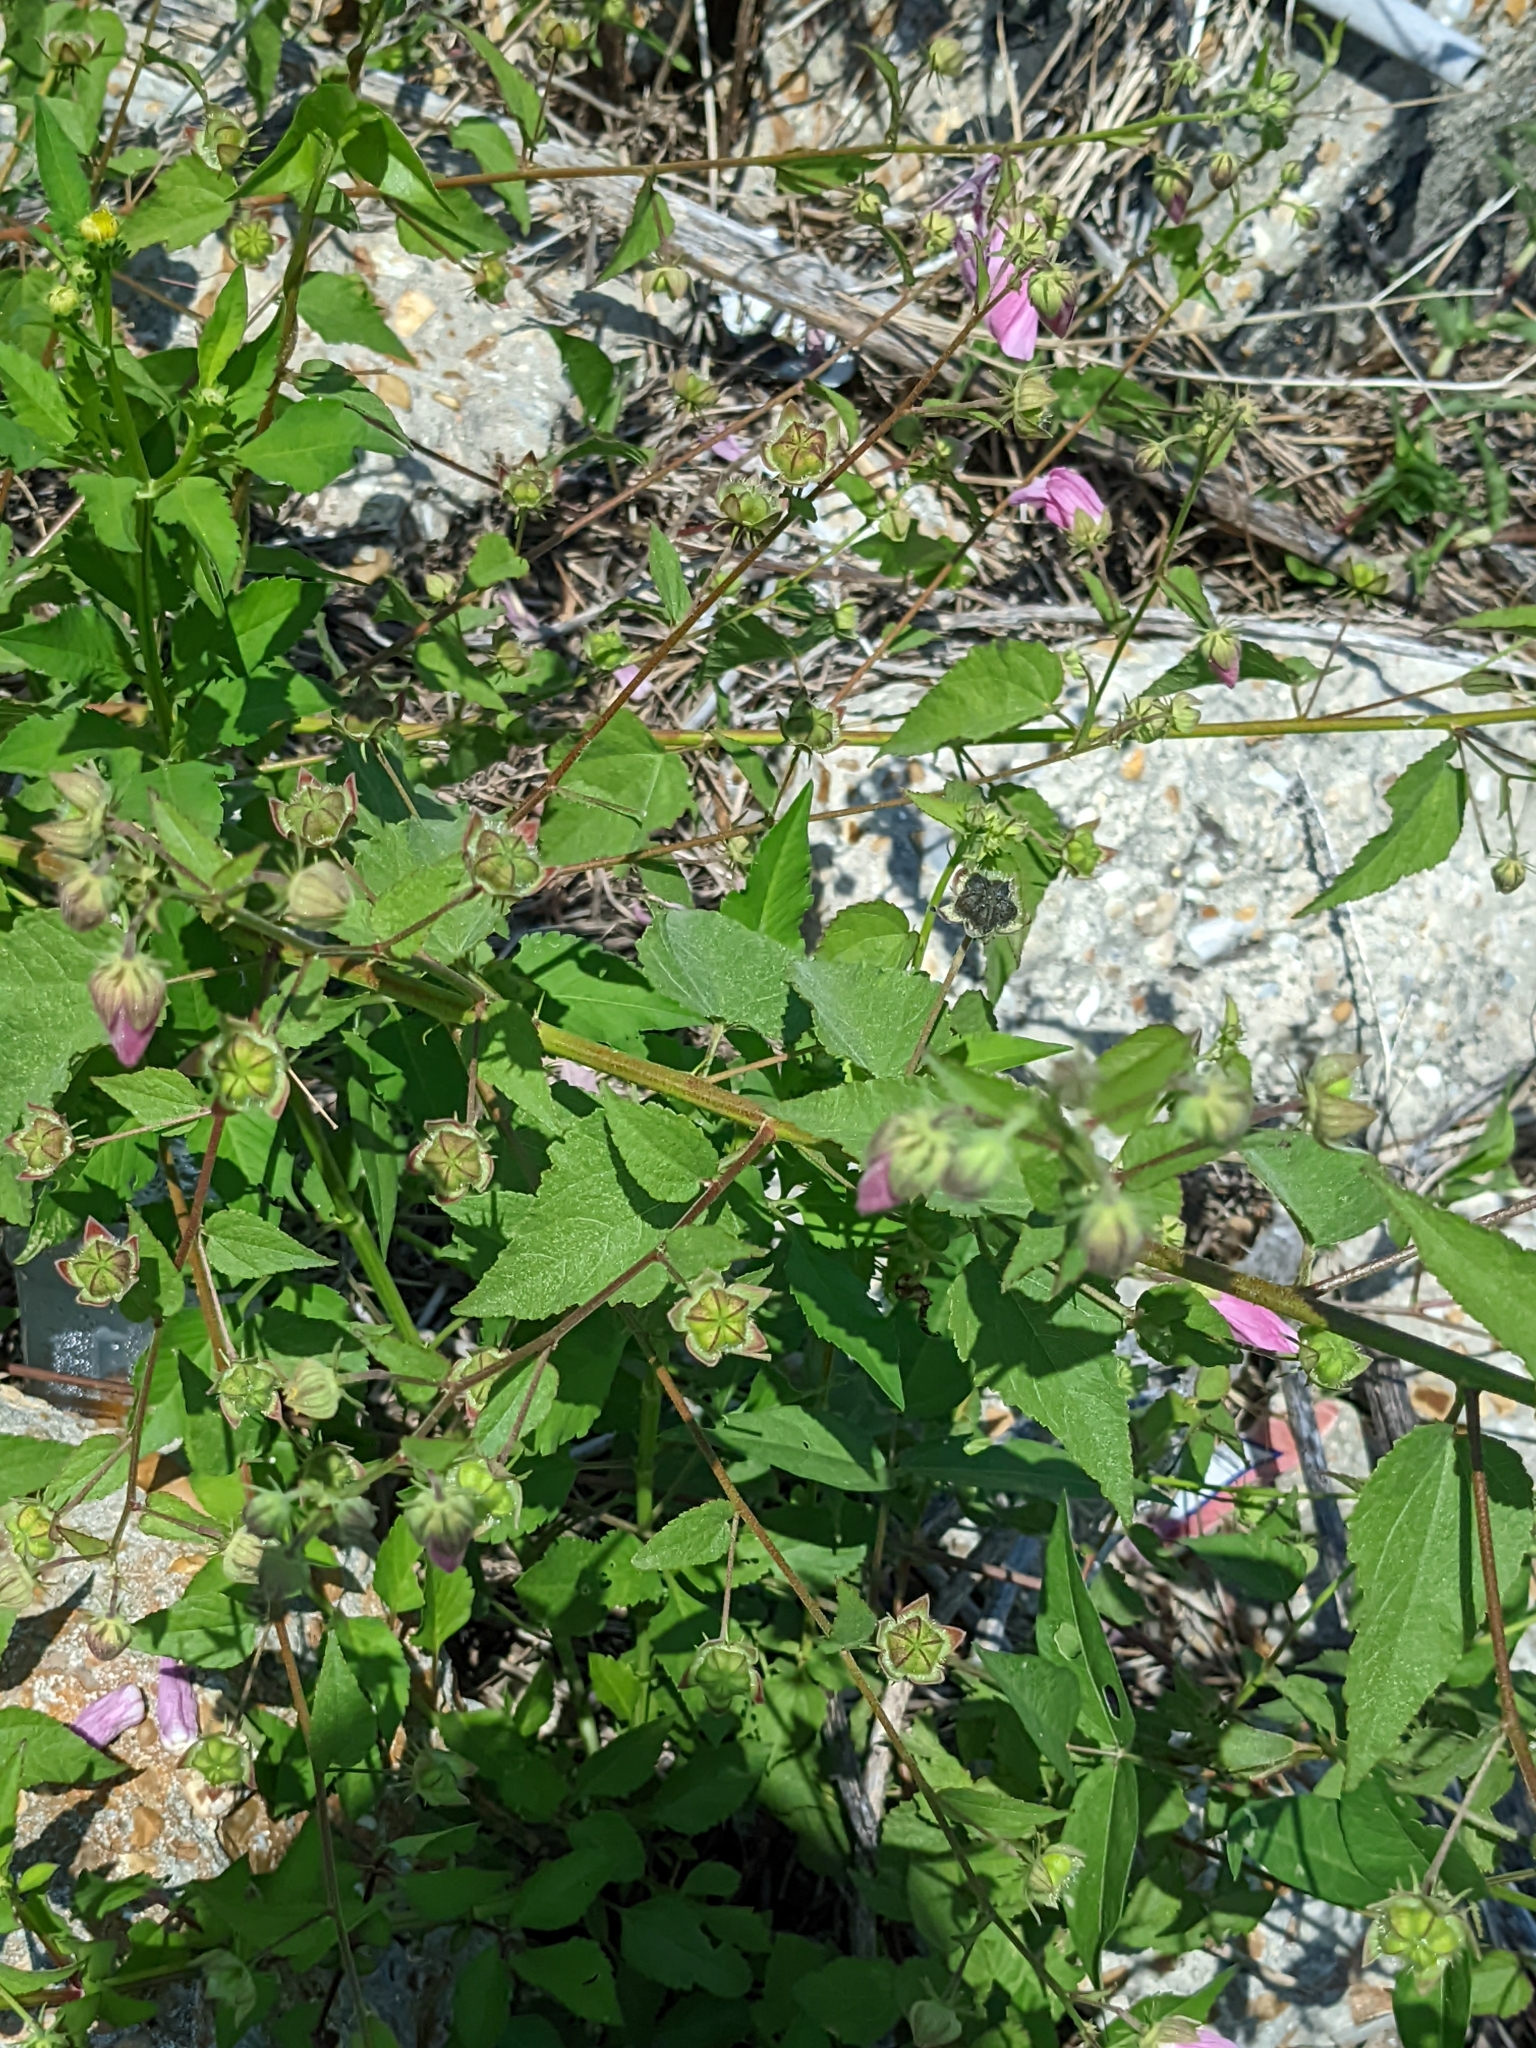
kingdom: Plantae
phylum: Tracheophyta
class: Magnoliopsida
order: Malvales
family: Malvaceae
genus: Kosteletzkya
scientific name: Kosteletzkya pentacarpos
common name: Virginia saltmarsh mallow
